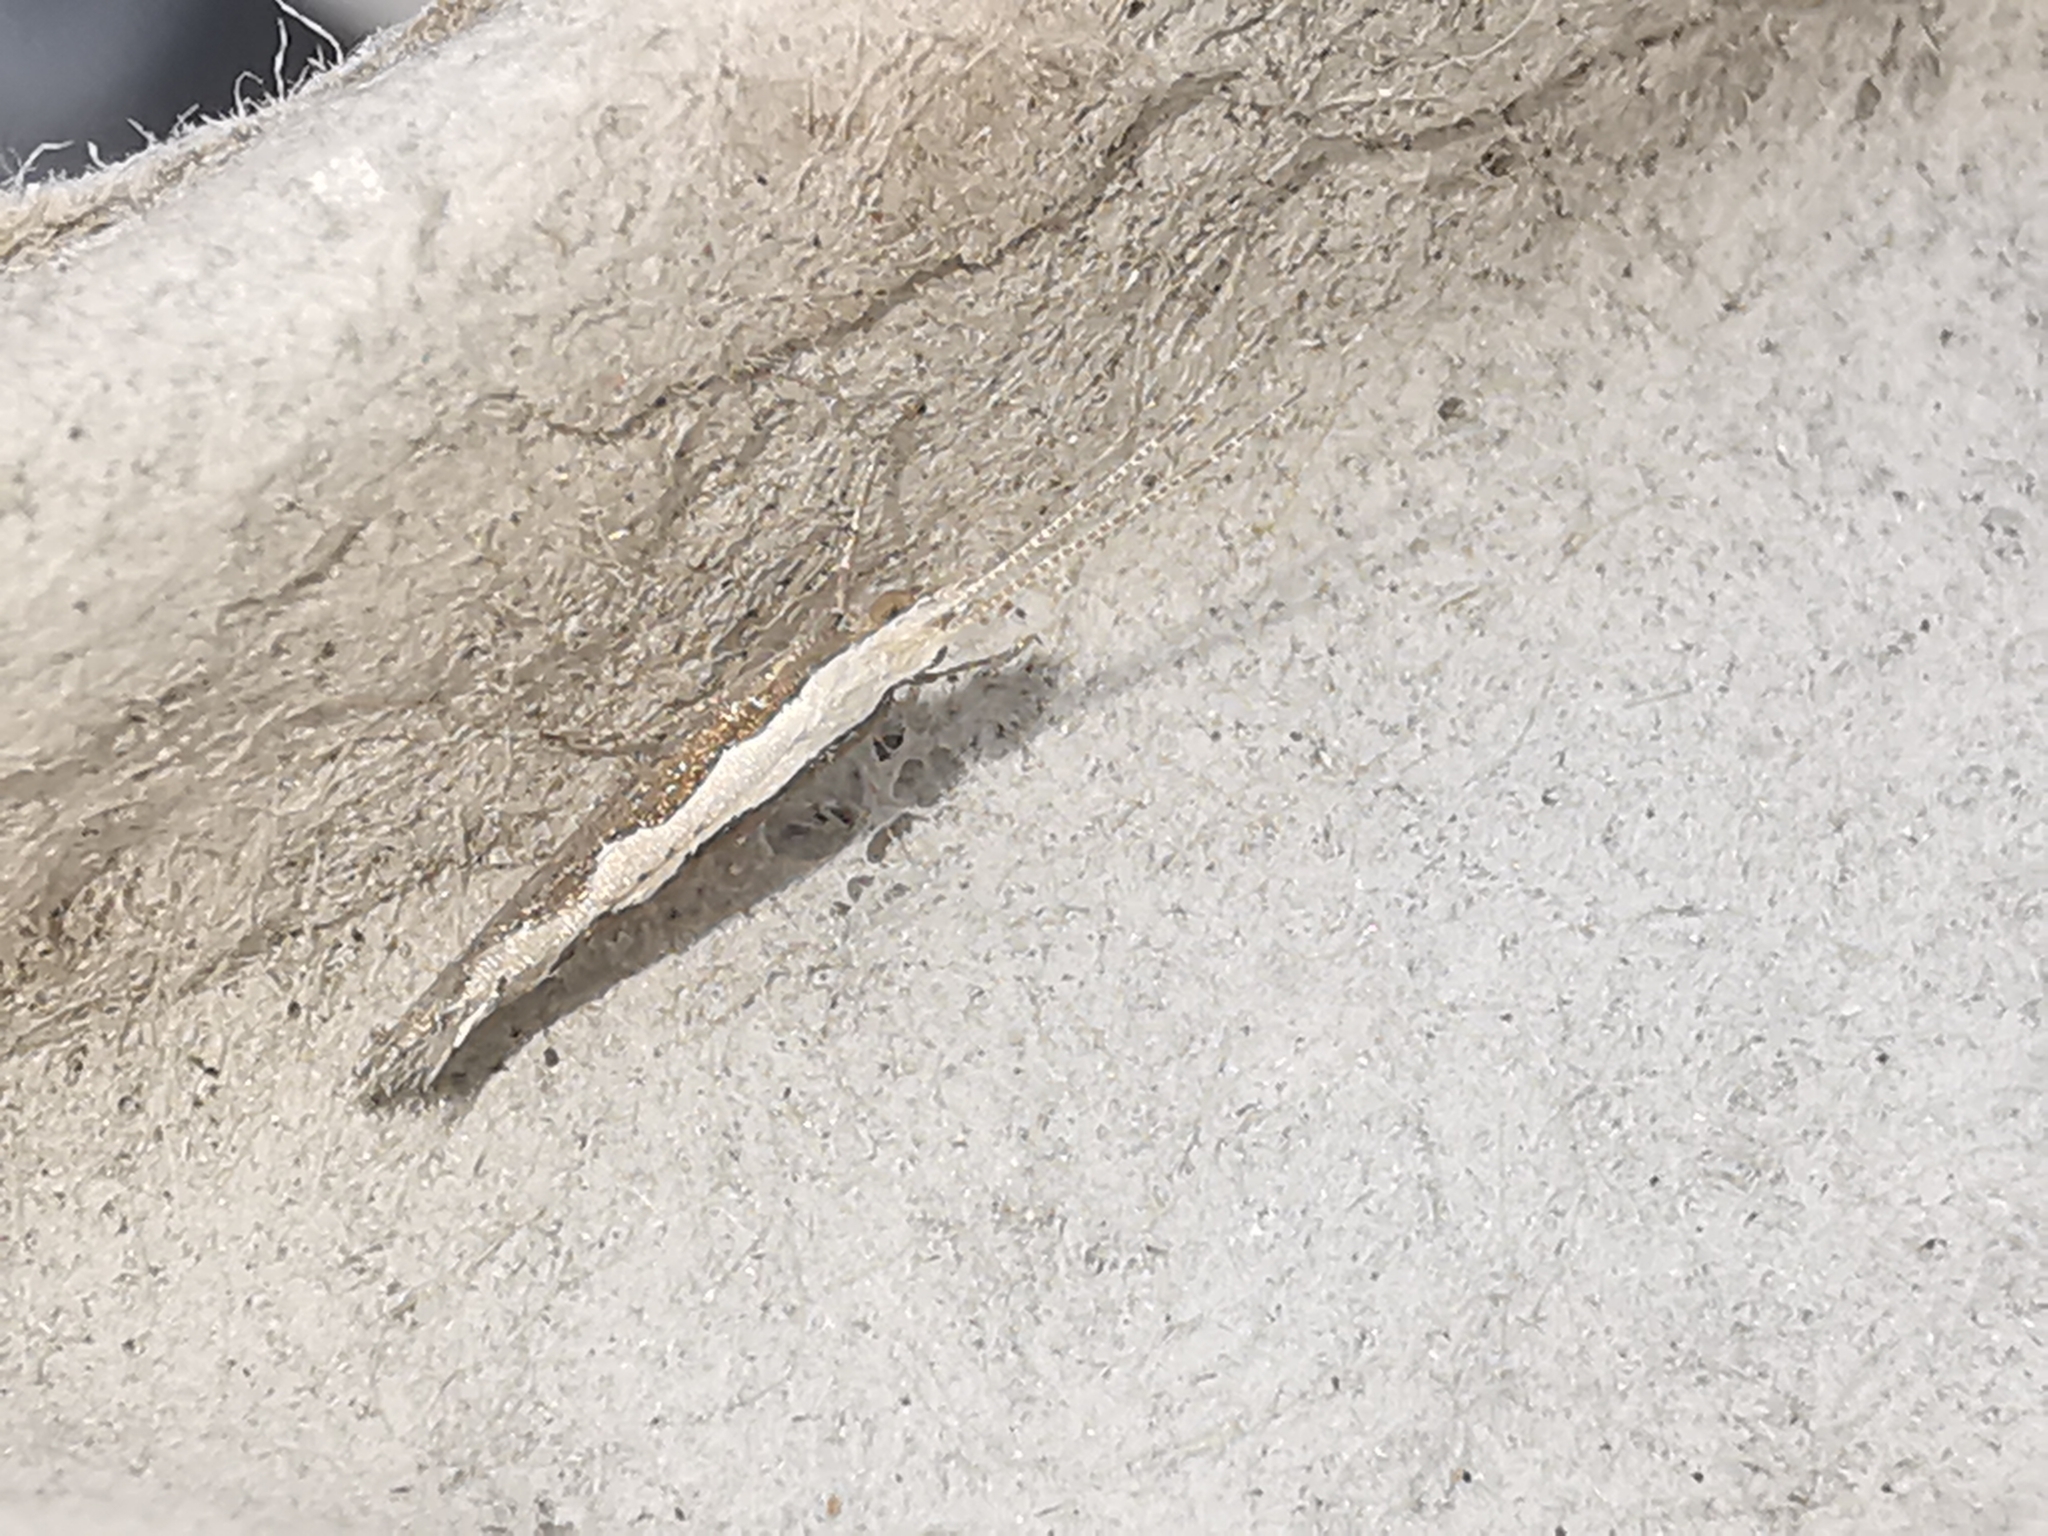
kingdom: Animalia
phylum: Arthropoda
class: Insecta
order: Lepidoptera
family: Plutellidae
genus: Plutella
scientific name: Plutella xylostella
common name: Diamond-back moth
